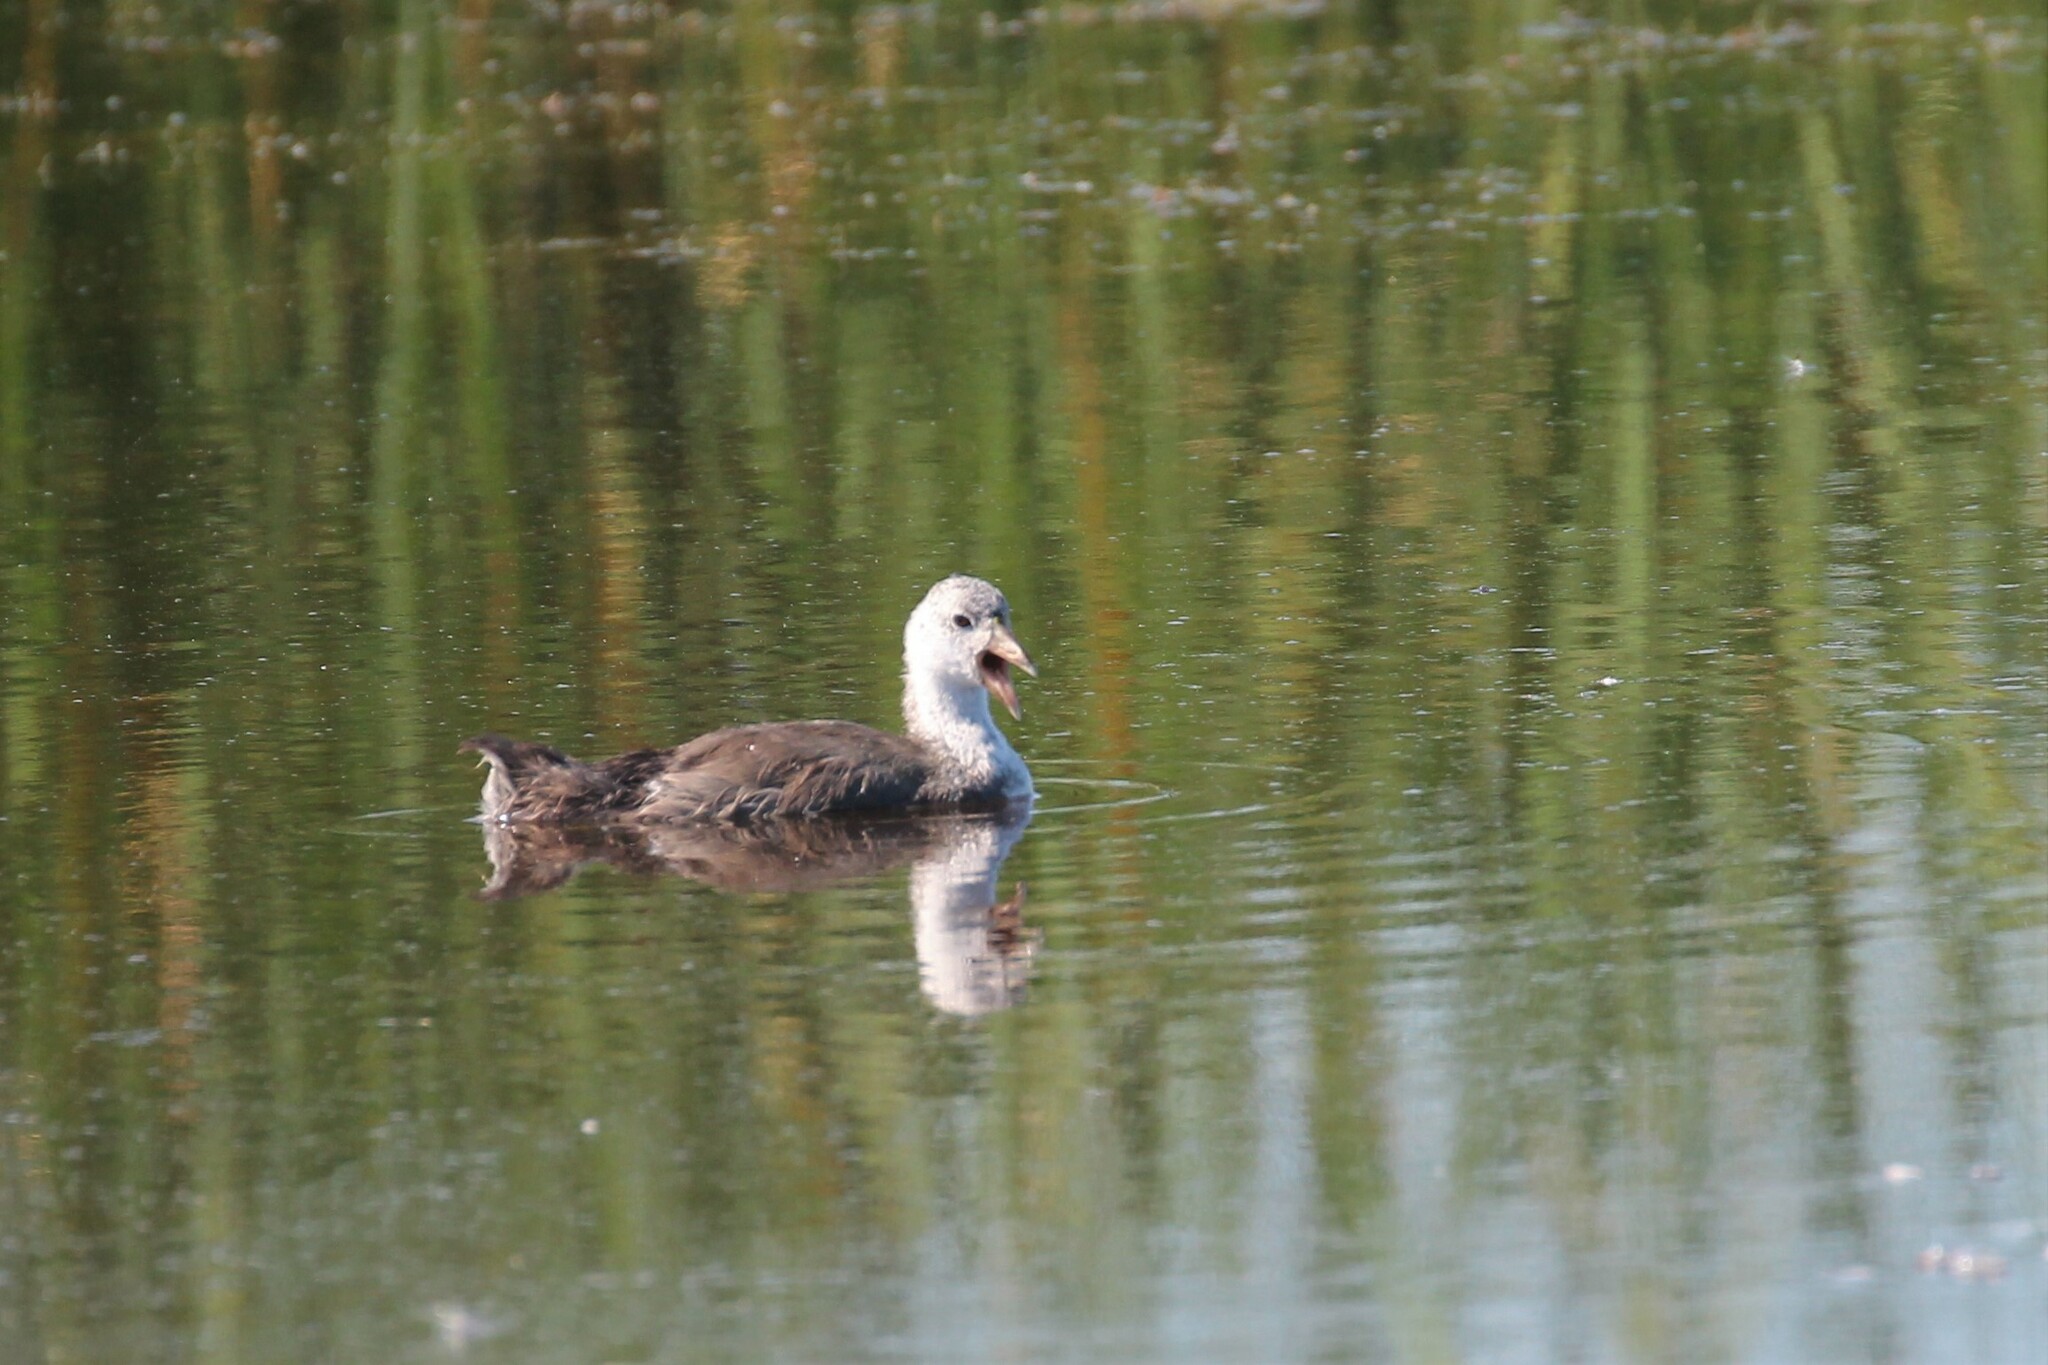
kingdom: Animalia
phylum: Chordata
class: Aves
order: Gruiformes
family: Rallidae
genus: Fulica
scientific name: Fulica americana
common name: American coot
